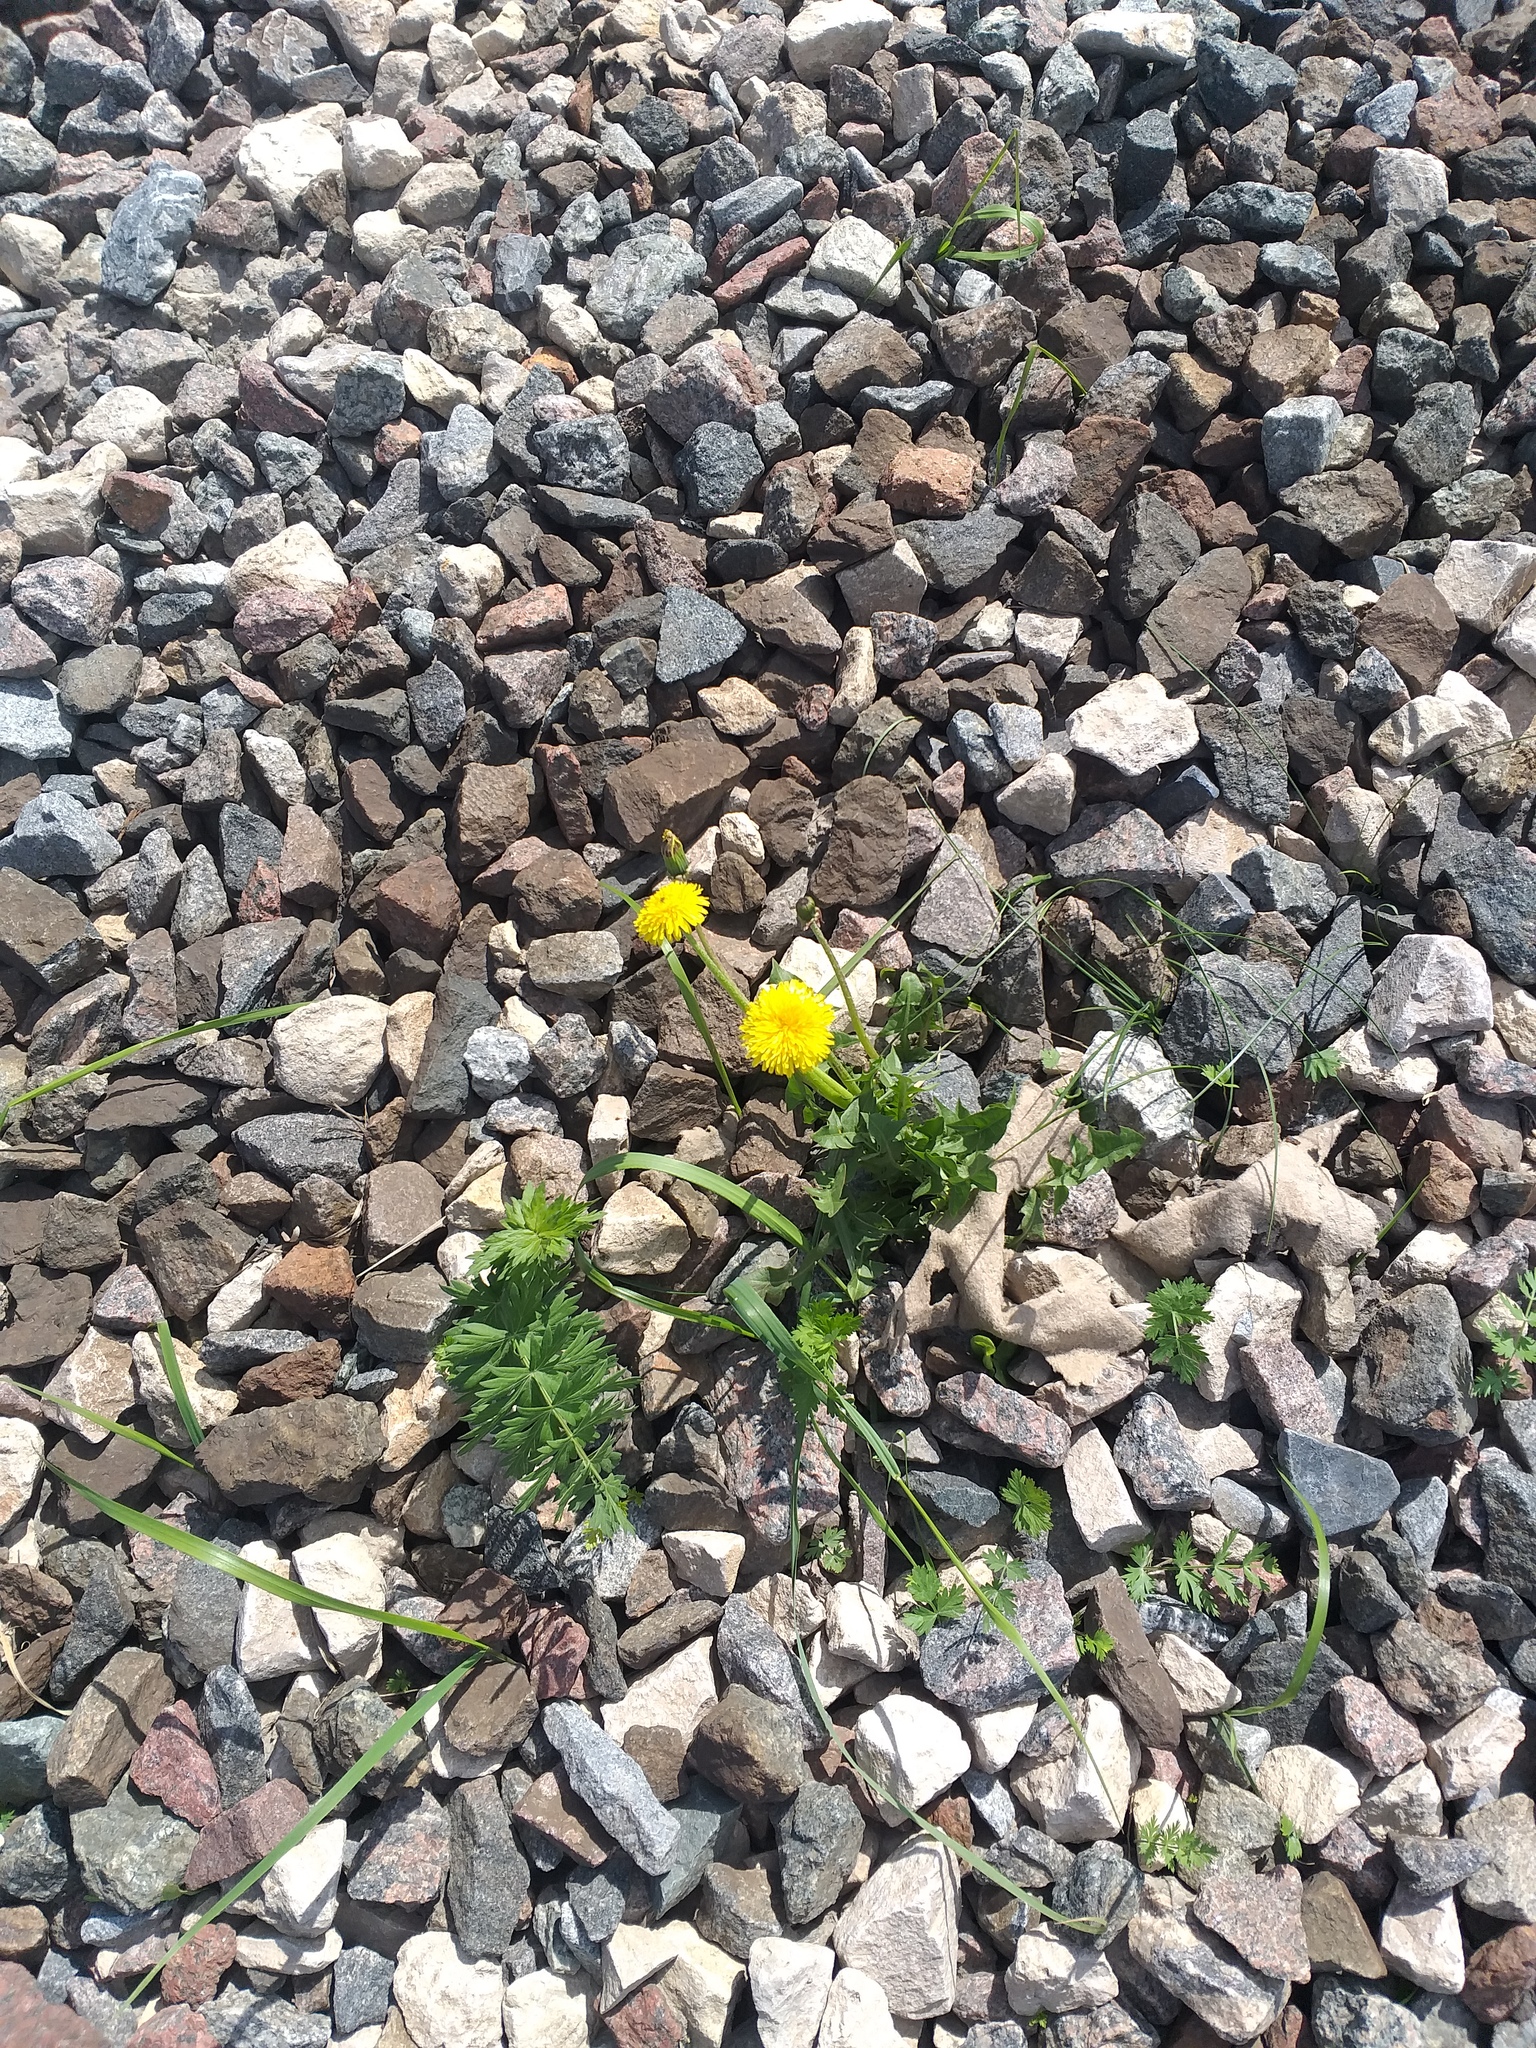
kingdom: Plantae
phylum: Tracheophyta
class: Magnoliopsida
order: Asterales
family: Asteraceae
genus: Taraxacum
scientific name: Taraxacum officinale
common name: Common dandelion
